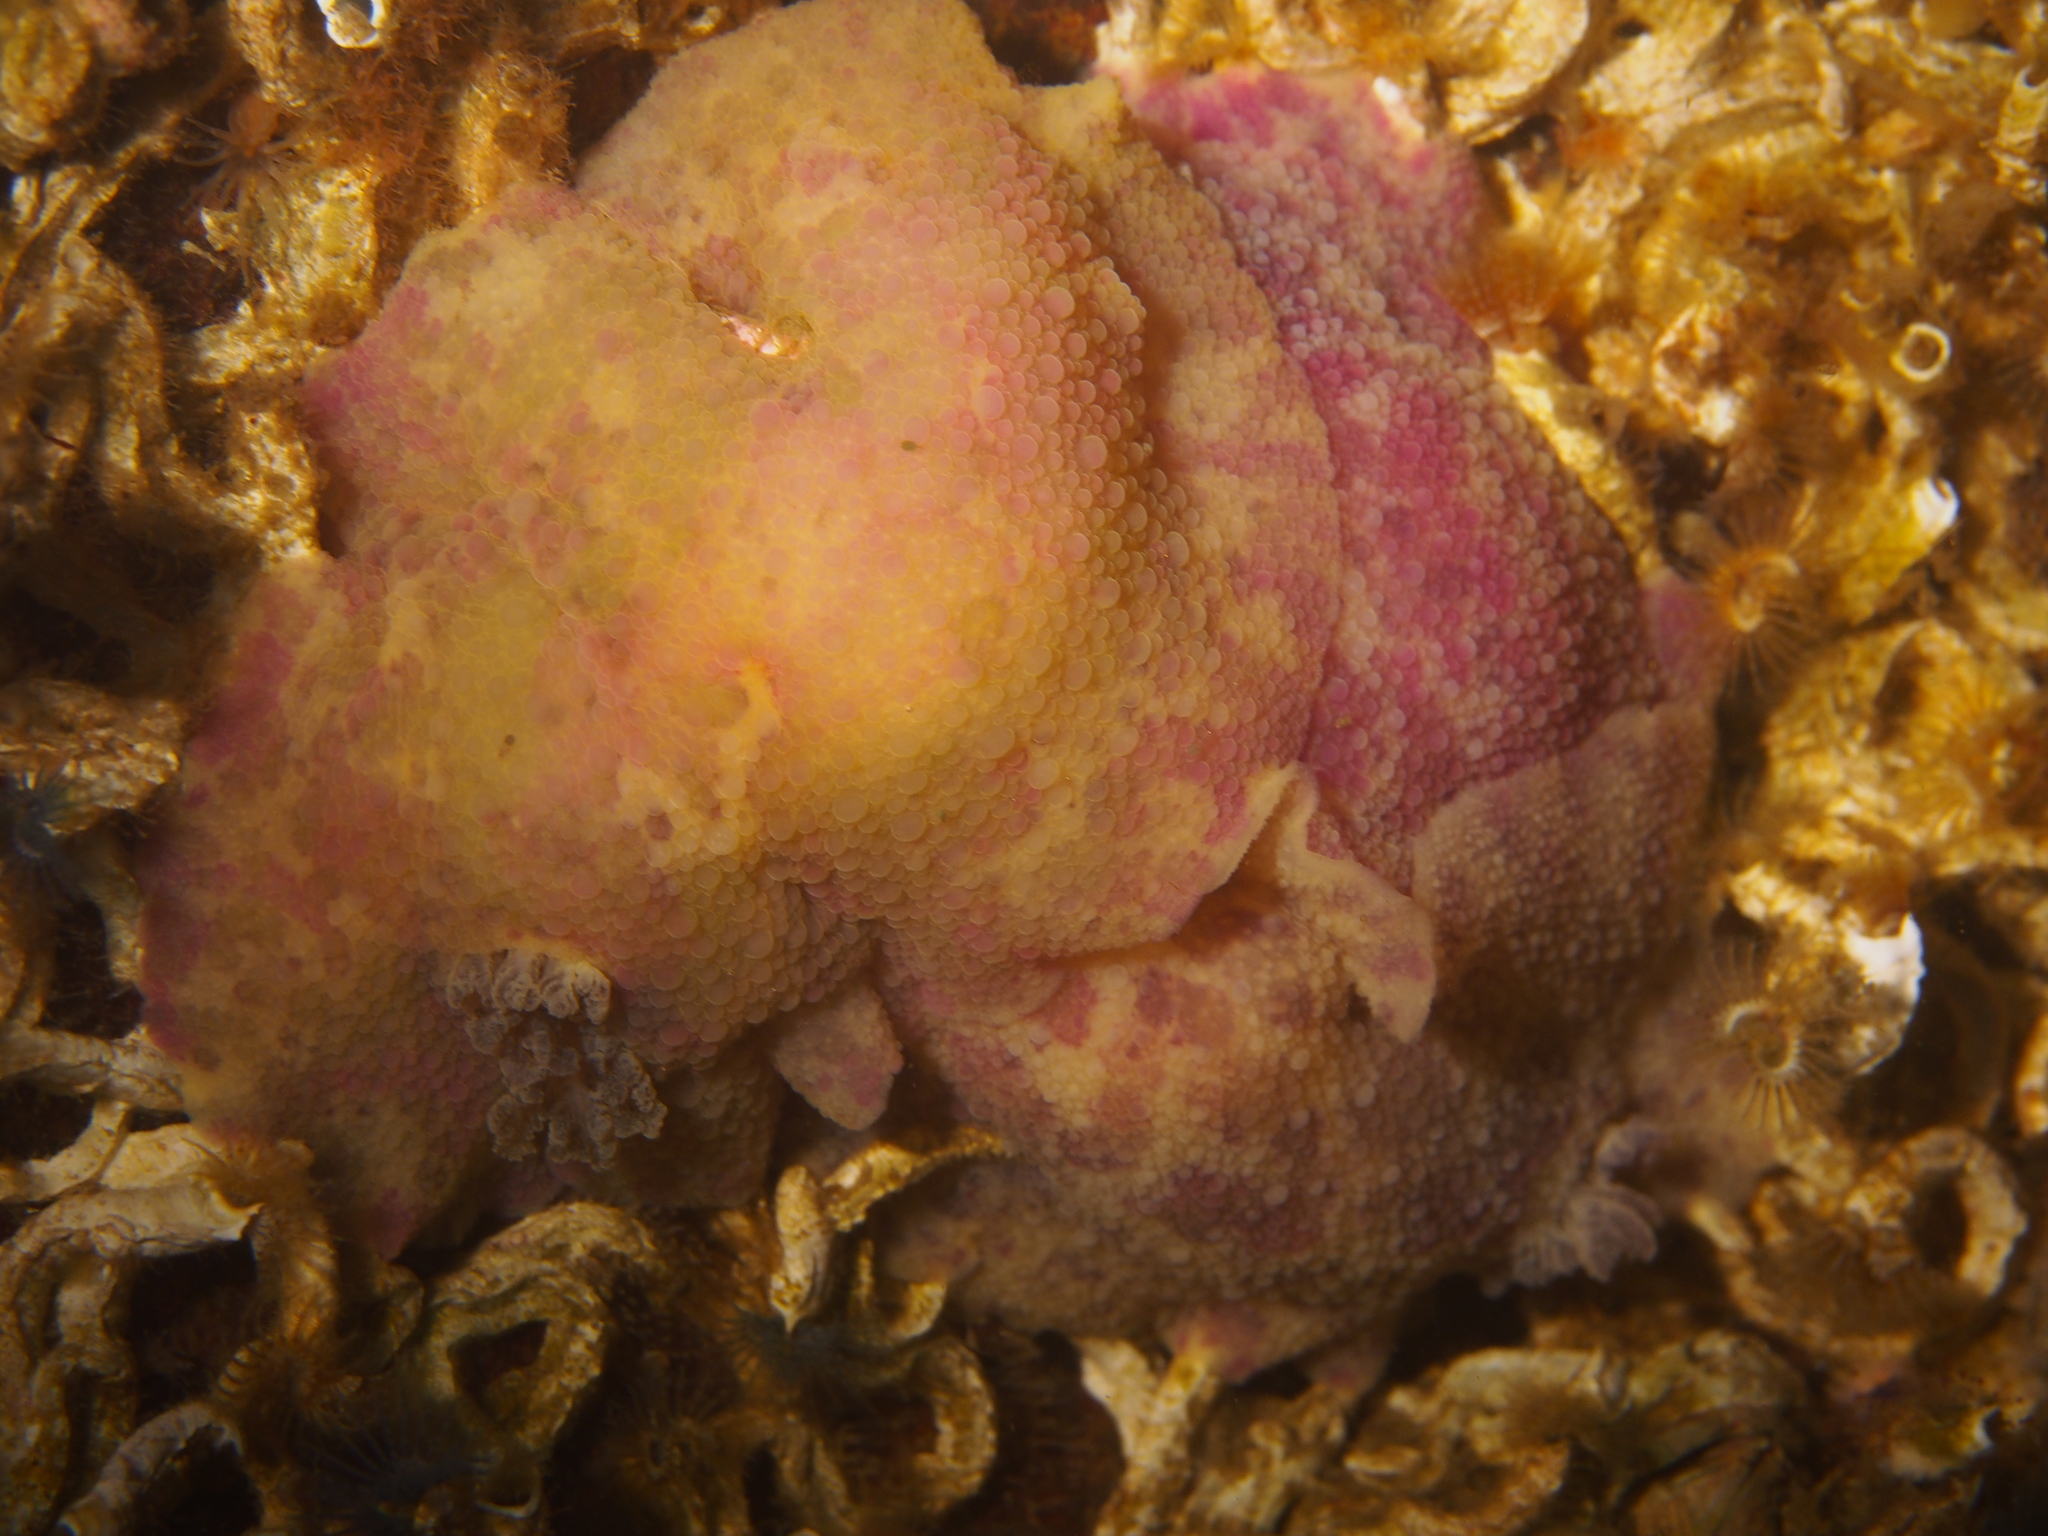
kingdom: Animalia
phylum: Mollusca
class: Gastropoda
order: Nudibranchia
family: Dorididae
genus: Doris
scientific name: Doris pseudoargus
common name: Sea lemon
